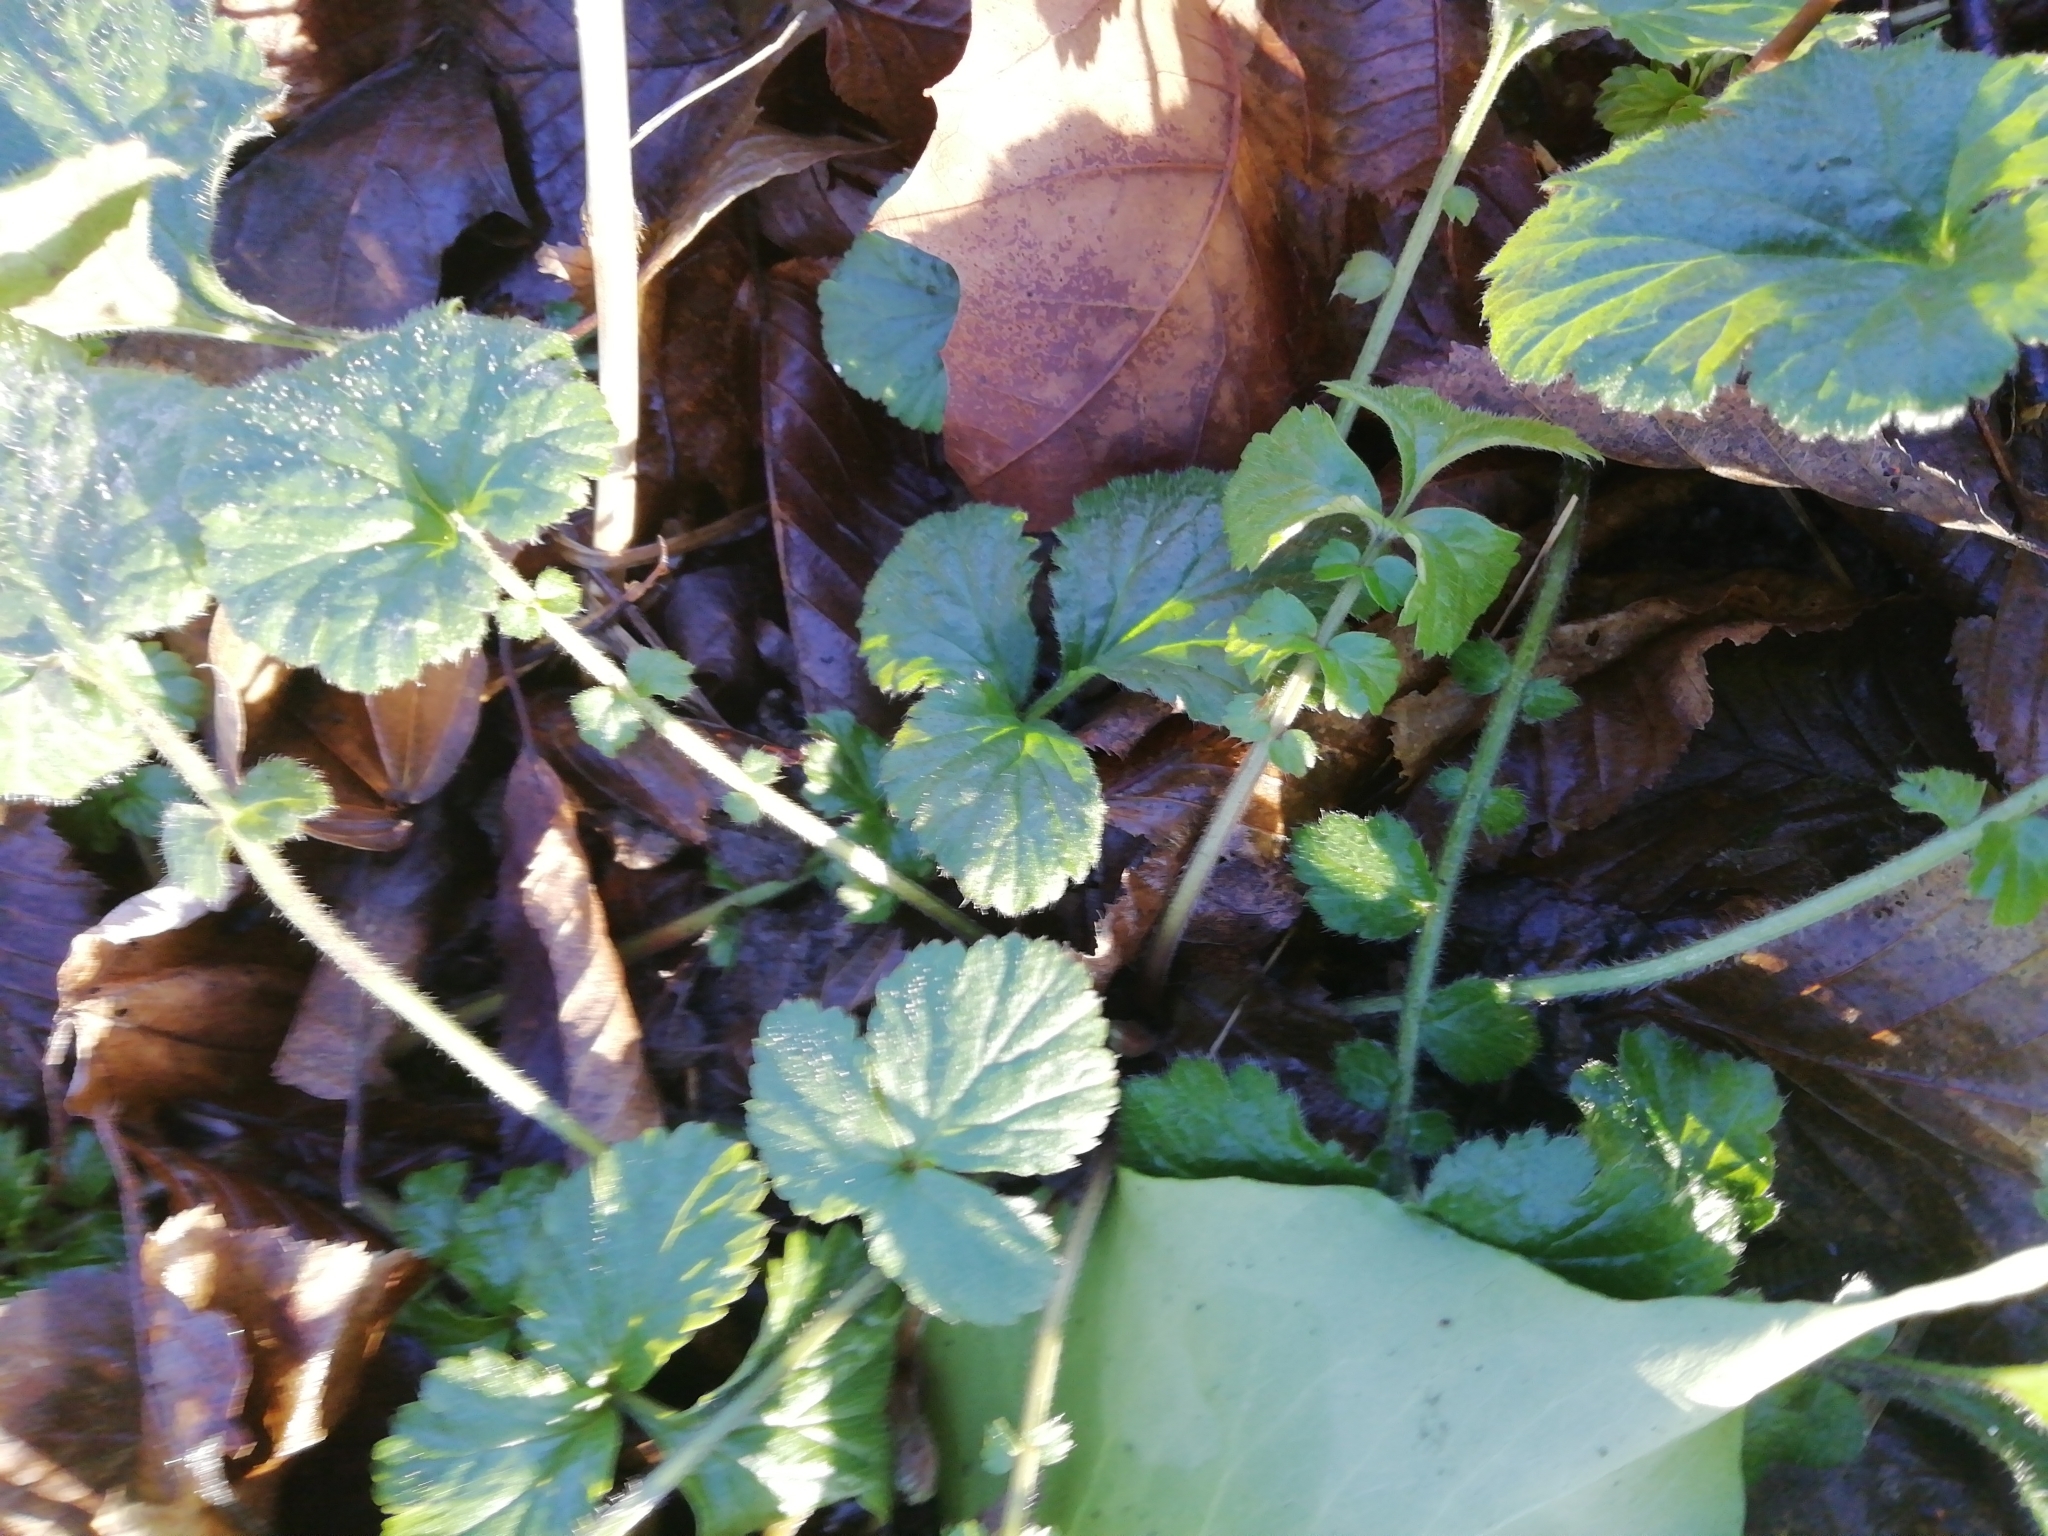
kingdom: Plantae
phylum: Tracheophyta
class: Magnoliopsida
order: Rosales
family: Rosaceae
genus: Geum
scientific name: Geum urbanum
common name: Wood avens
